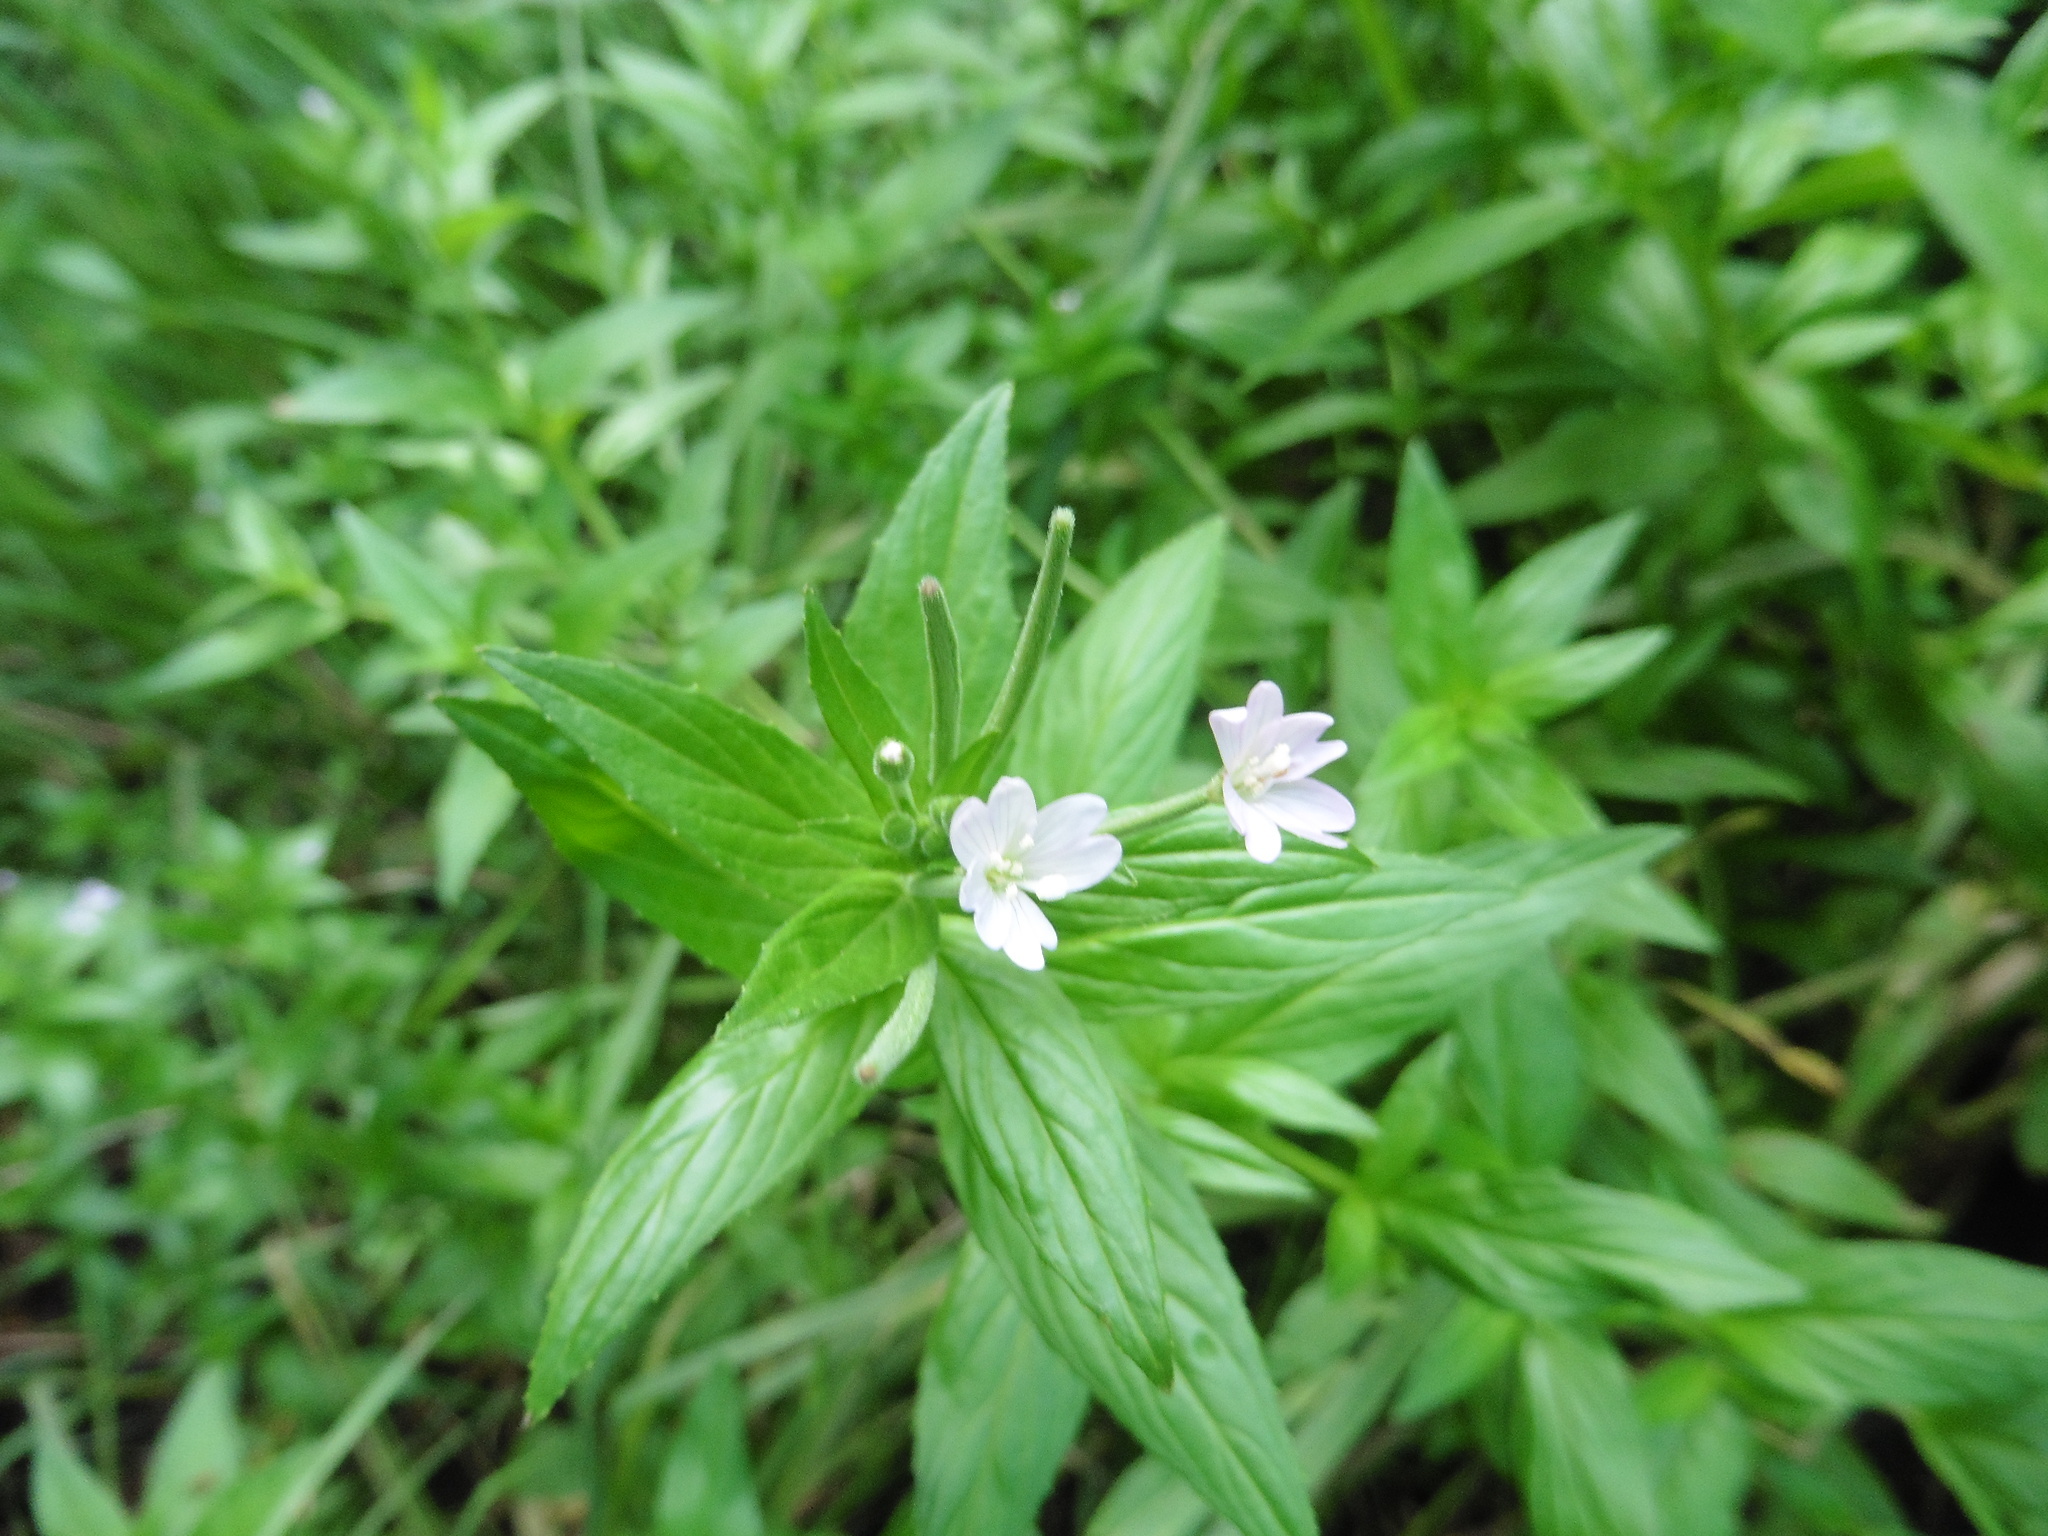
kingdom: Plantae
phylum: Tracheophyta
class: Magnoliopsida
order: Myrtales
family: Onagraceae
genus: Epilobium
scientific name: Epilobium pseudorubescens
